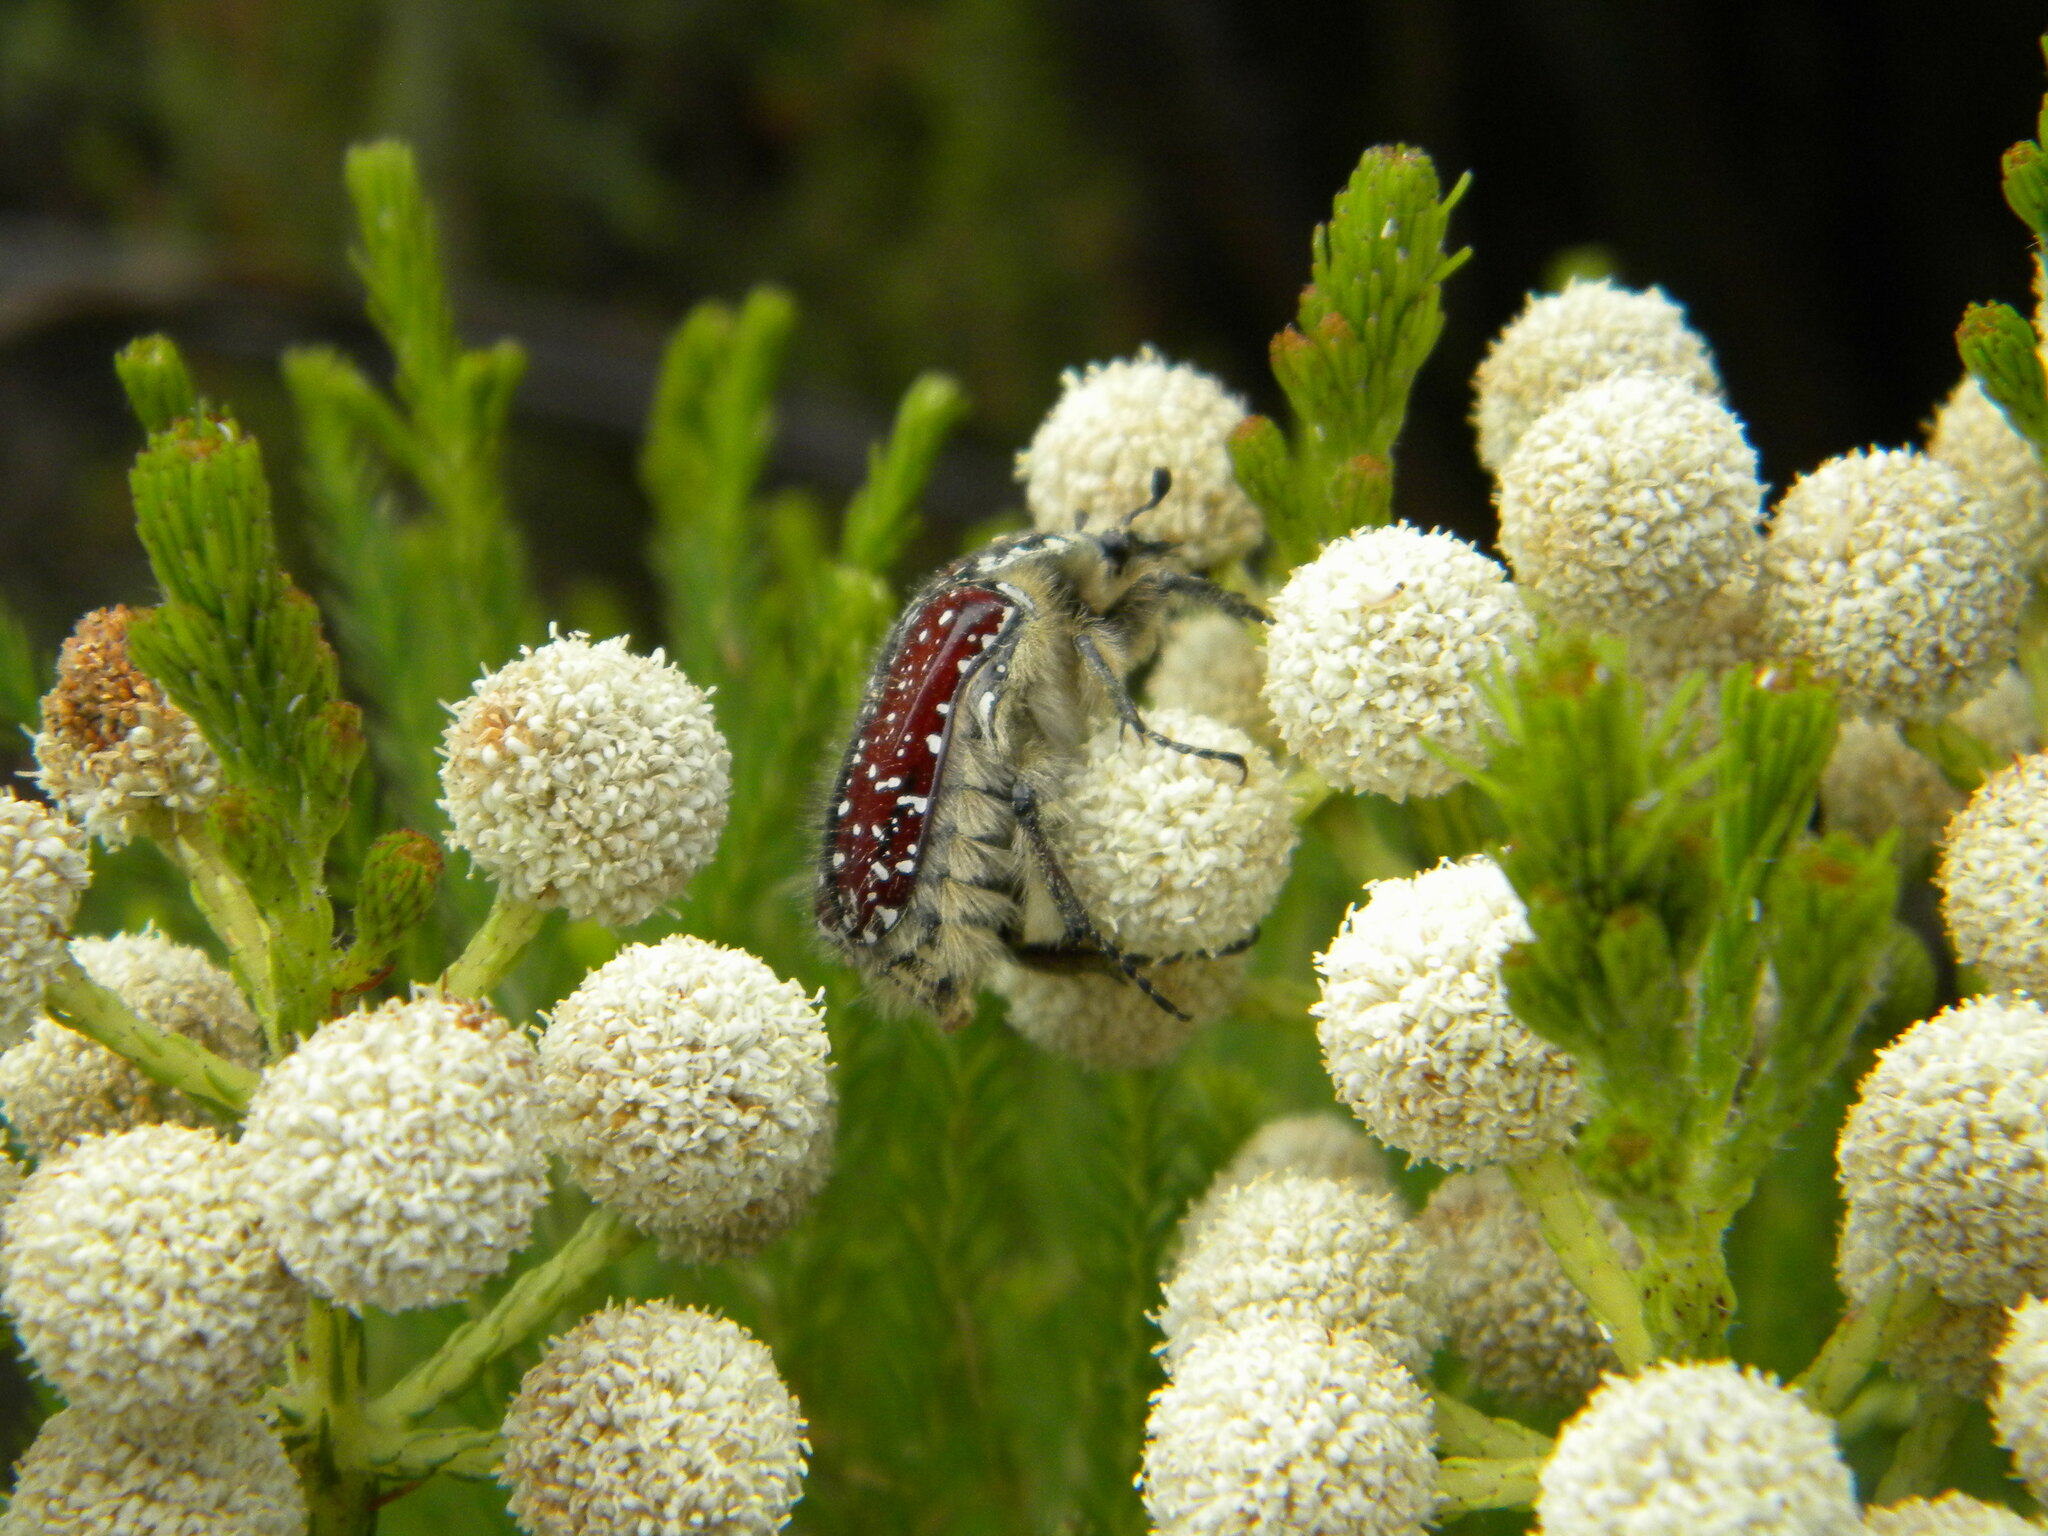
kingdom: Animalia
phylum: Arthropoda
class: Insecta
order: Coleoptera
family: Scarabaeidae
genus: Trichostetha
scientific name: Trichostetha capensis
